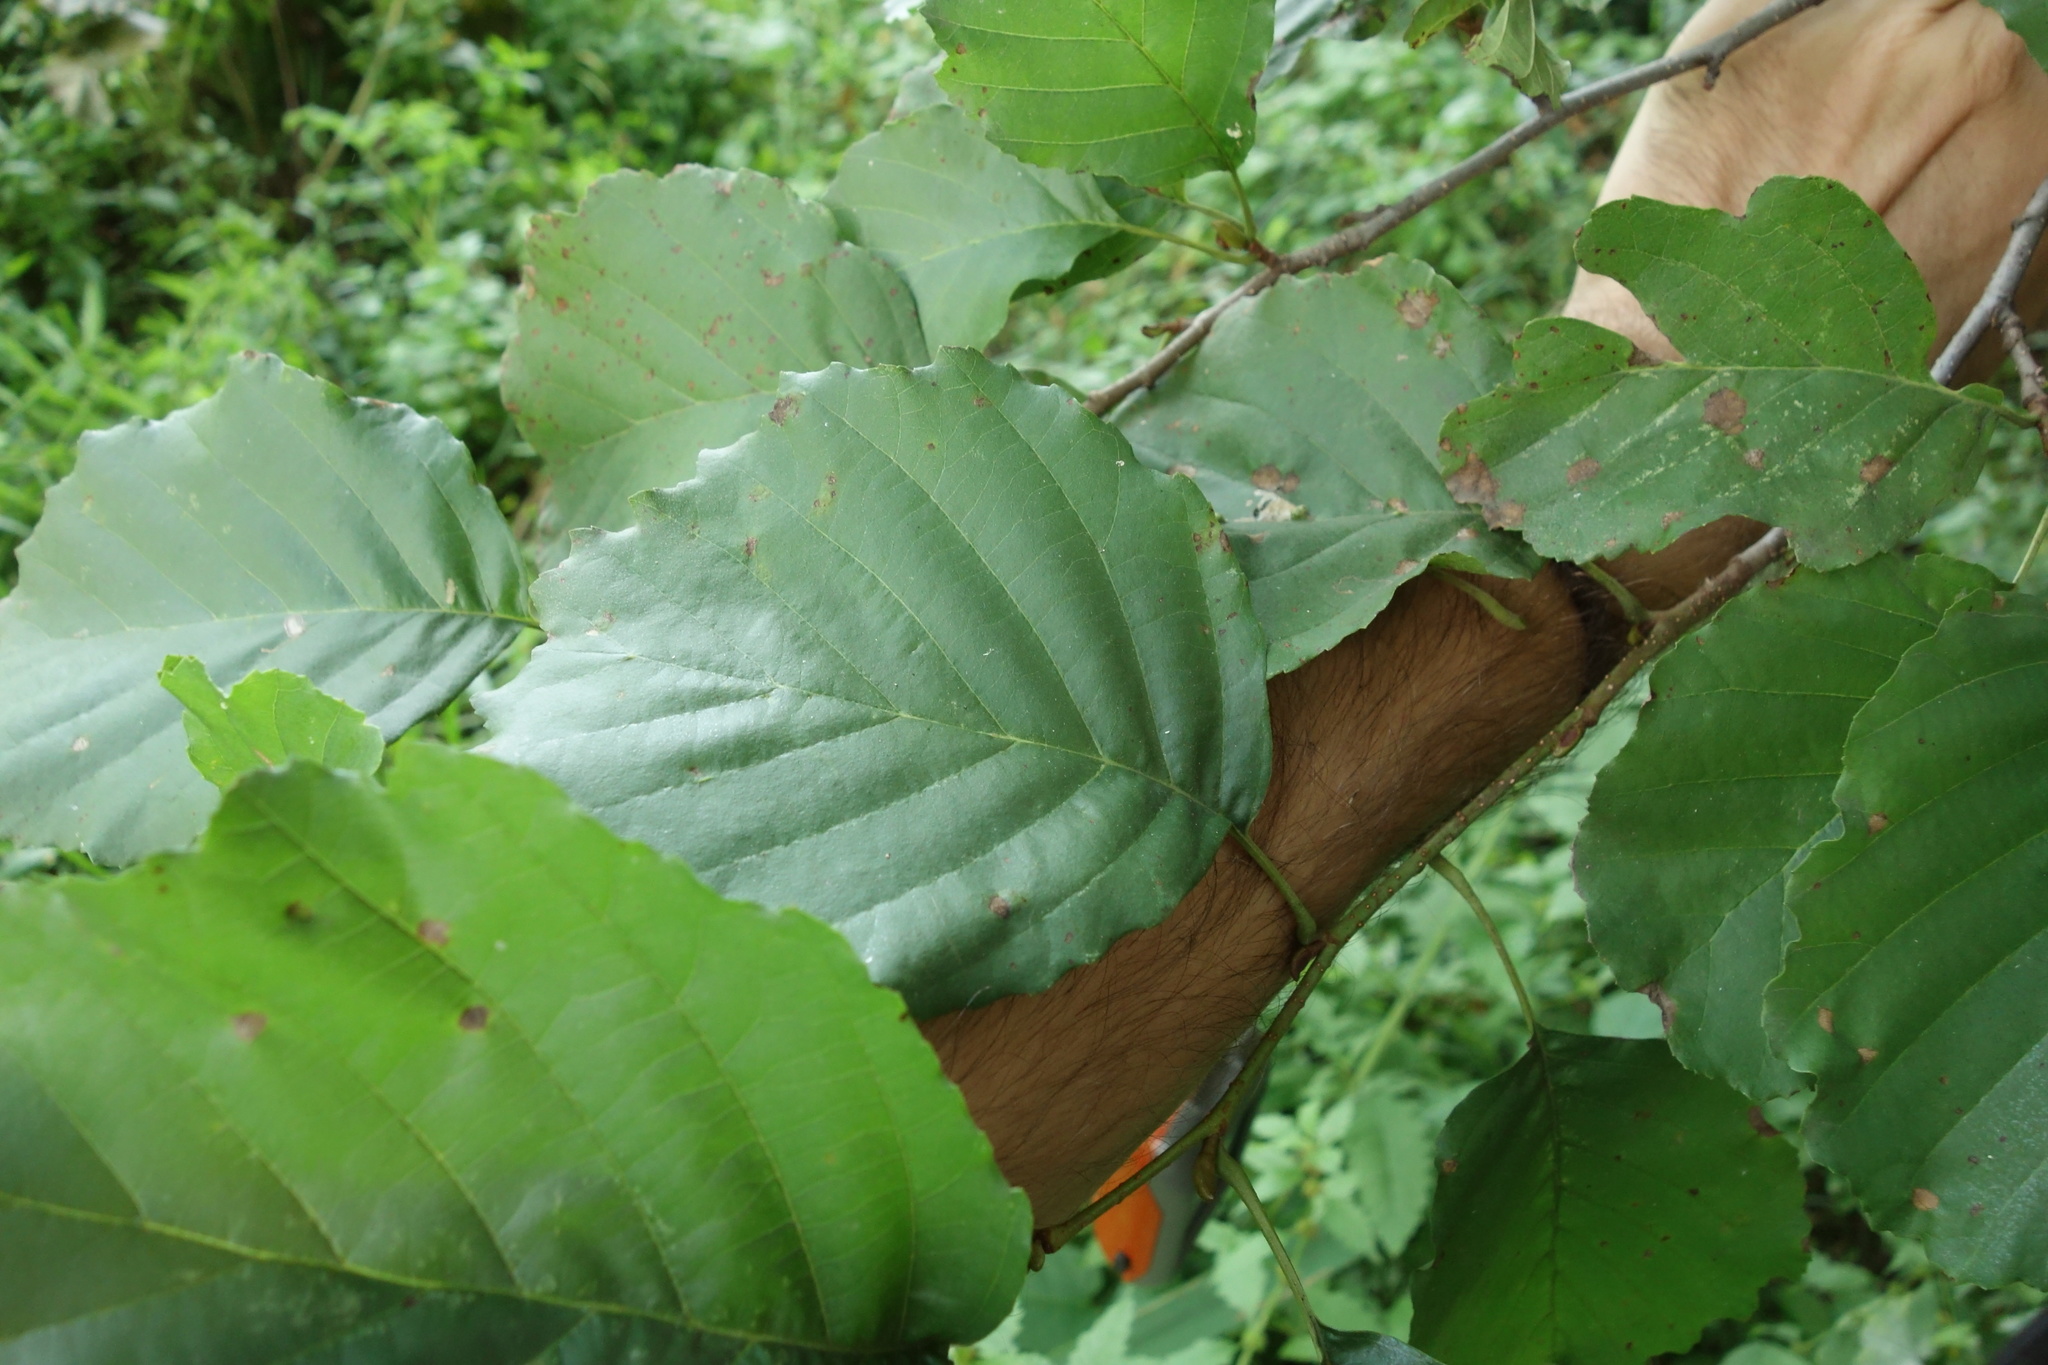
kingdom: Plantae
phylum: Tracheophyta
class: Magnoliopsida
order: Fagales
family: Betulaceae
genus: Alnus
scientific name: Alnus glutinosa
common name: Black alder
